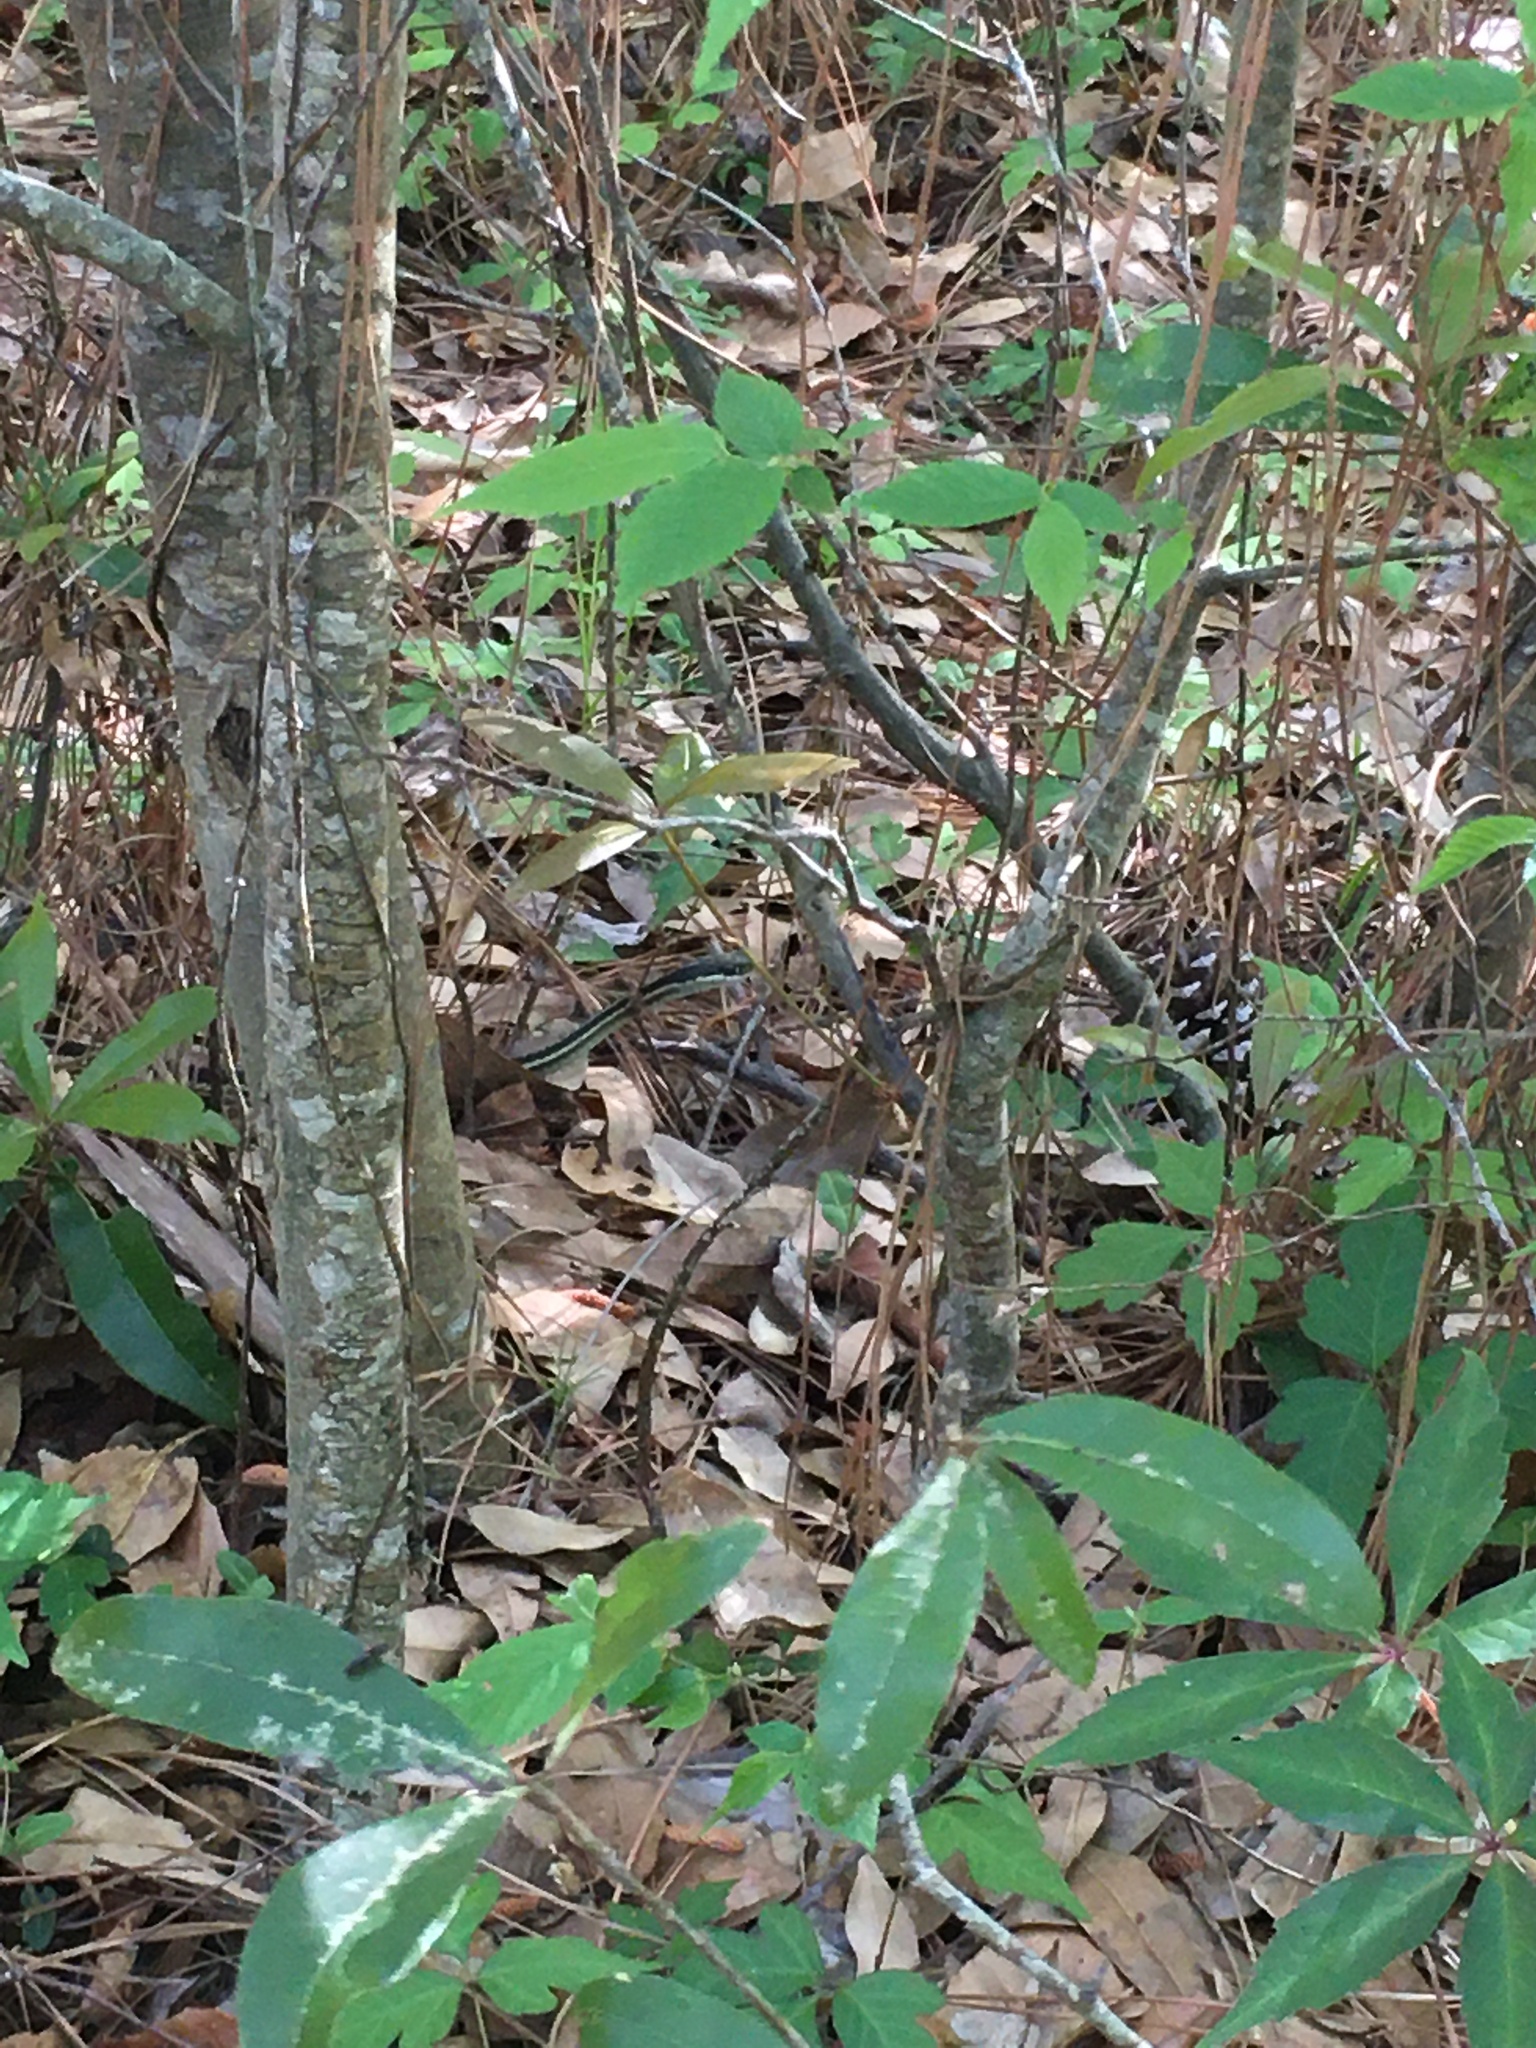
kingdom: Animalia
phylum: Chordata
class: Squamata
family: Colubridae
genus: Thamnophis
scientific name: Thamnophis saurita
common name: Eastern ribbonsnake
